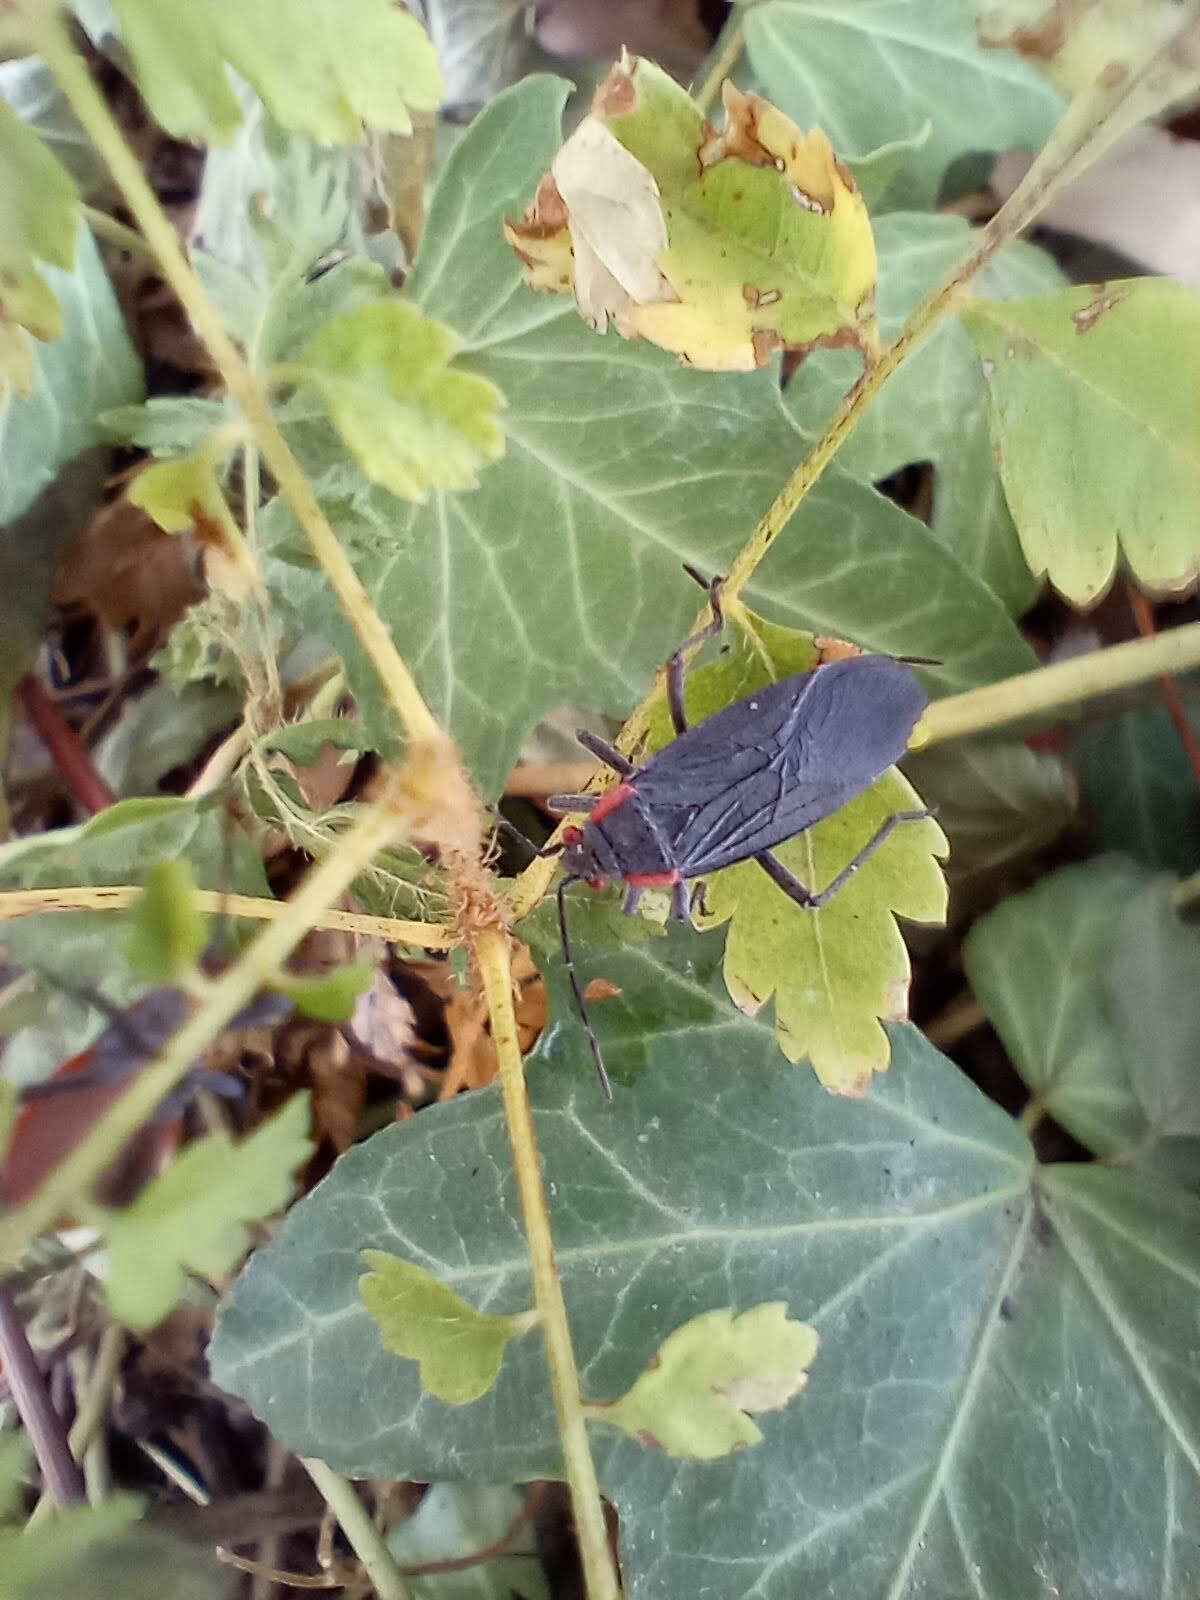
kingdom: Animalia
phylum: Arthropoda
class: Insecta
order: Hemiptera
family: Rhopalidae
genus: Jadera
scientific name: Jadera haematoloma
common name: Red-shouldered bug
